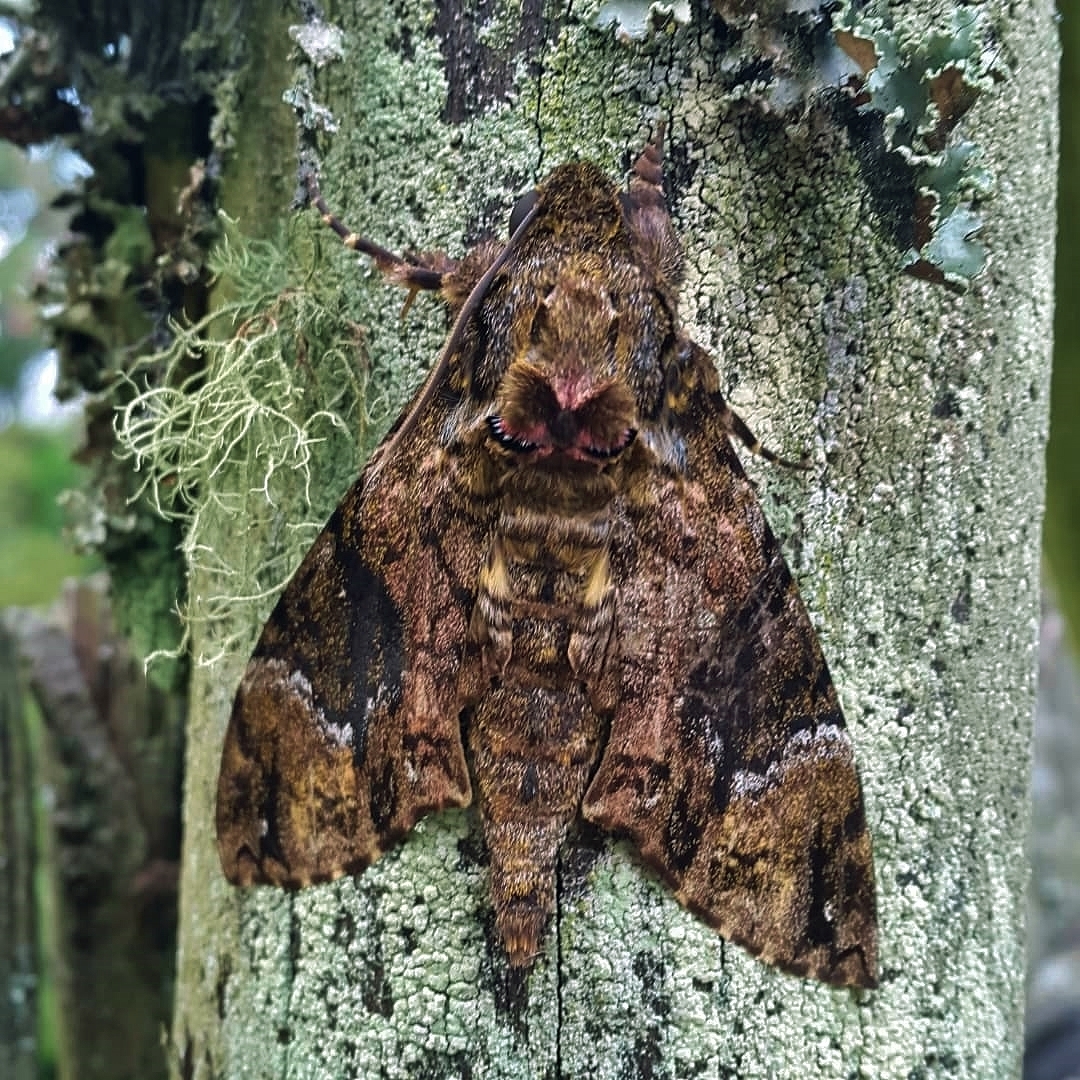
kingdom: Animalia
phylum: Arthropoda
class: Insecta
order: Lepidoptera
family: Sphingidae
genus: Coelonia
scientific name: Coelonia fulvinotata
